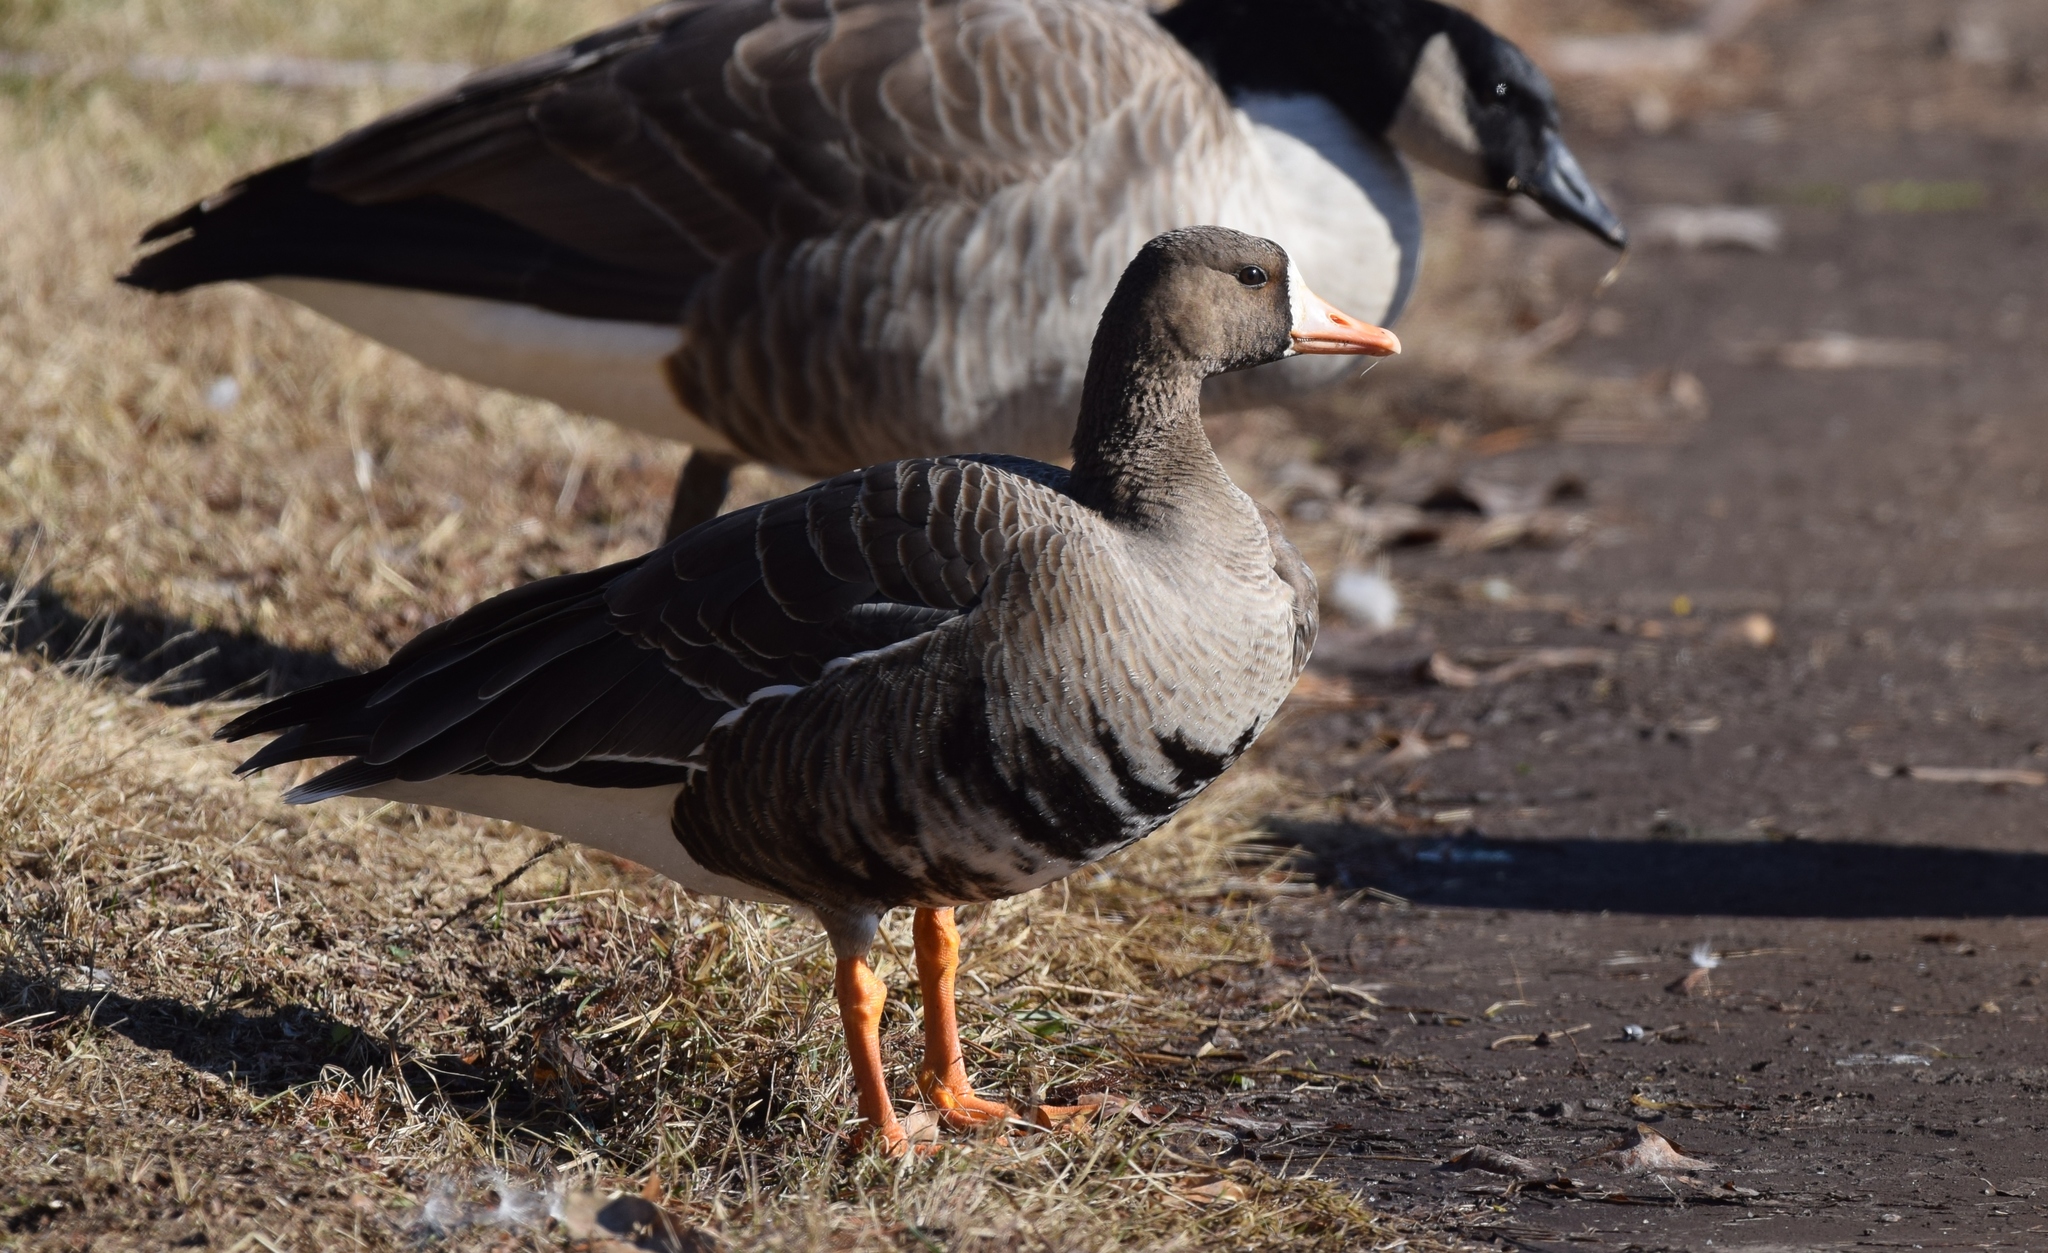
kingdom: Animalia
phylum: Chordata
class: Aves
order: Anseriformes
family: Anatidae
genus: Anser
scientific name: Anser albifrons
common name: Greater white-fronted goose
